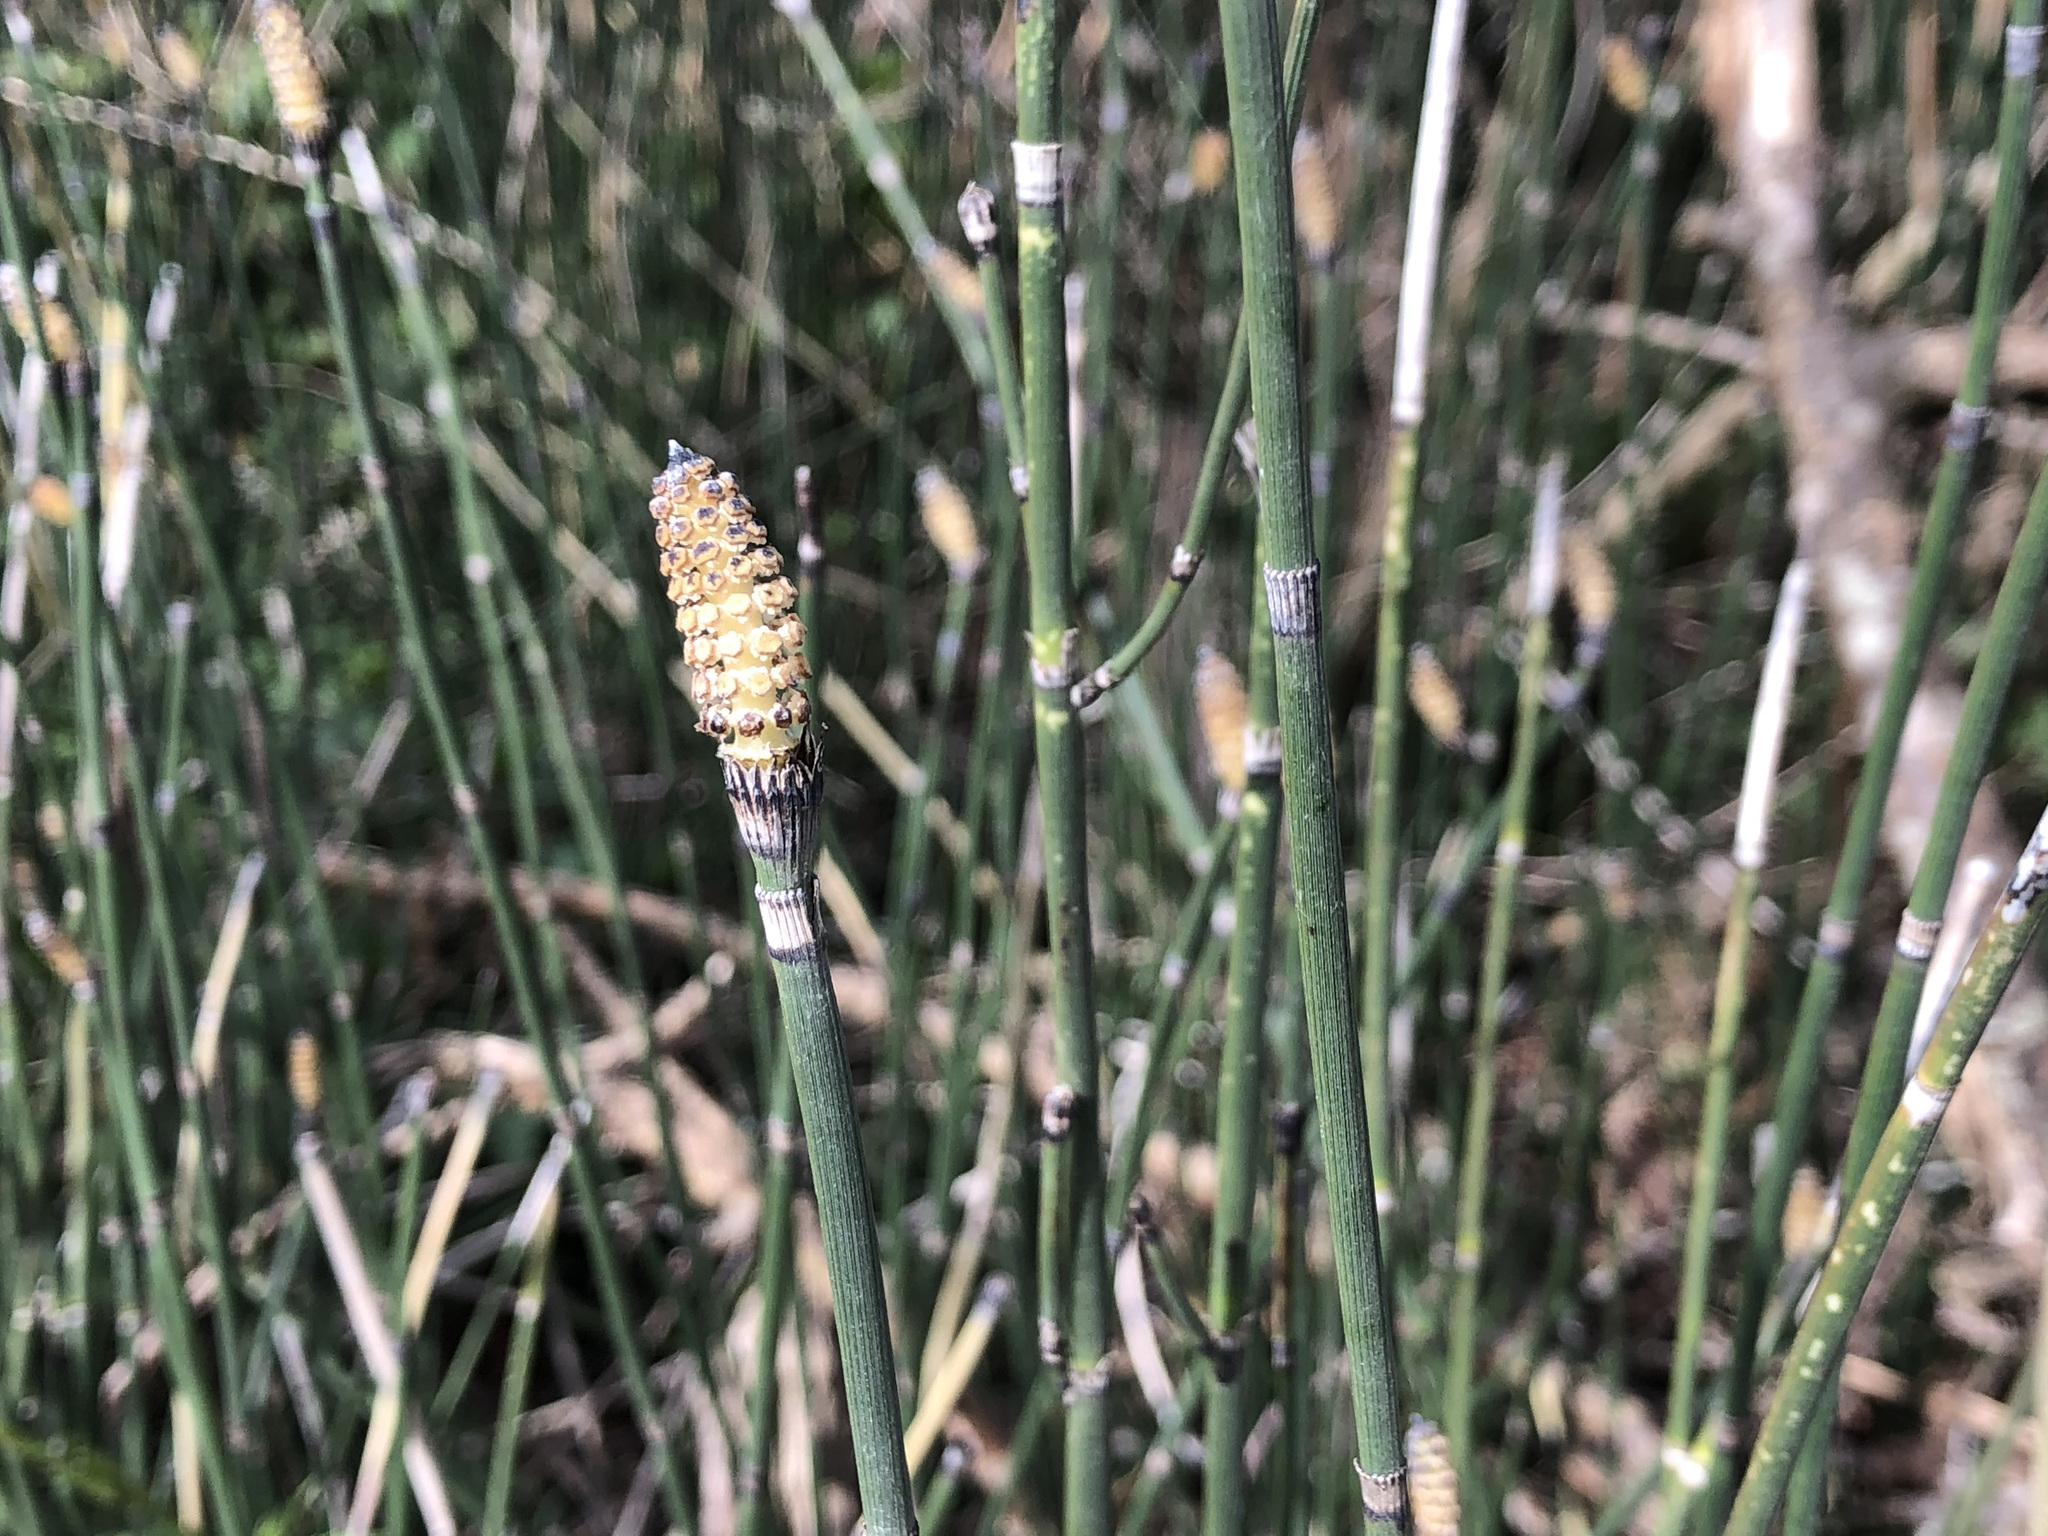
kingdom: Plantae
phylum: Tracheophyta
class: Polypodiopsida
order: Equisetales
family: Equisetaceae
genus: Equisetum
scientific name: Equisetum hyemale
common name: Rough horsetail
